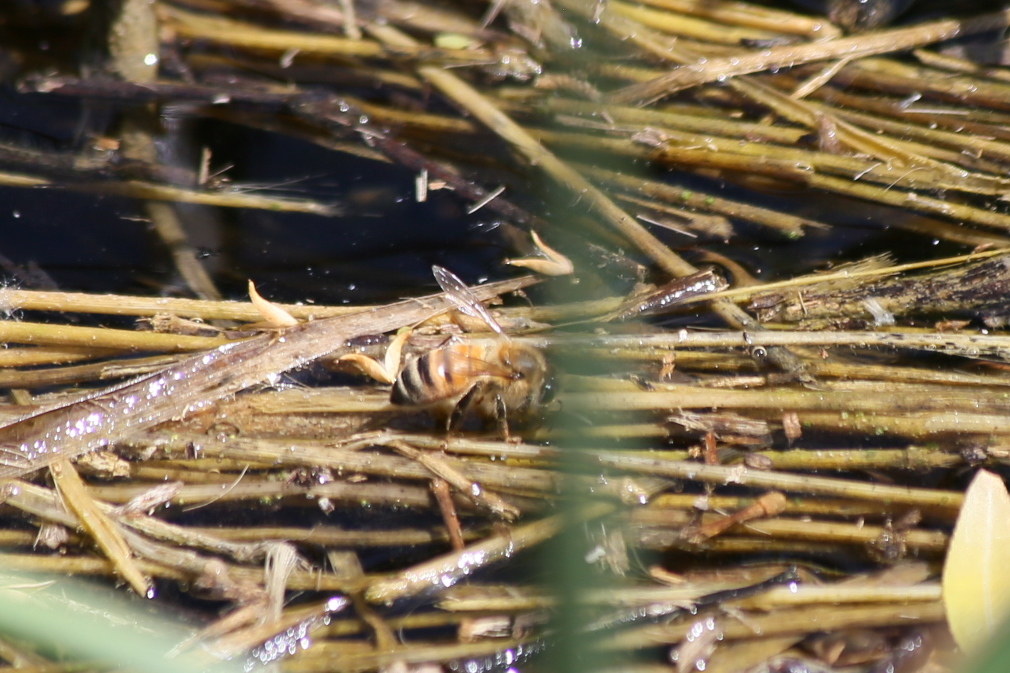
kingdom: Animalia
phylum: Arthropoda
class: Insecta
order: Hymenoptera
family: Apidae
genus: Apis
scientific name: Apis mellifera
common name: Honey bee
